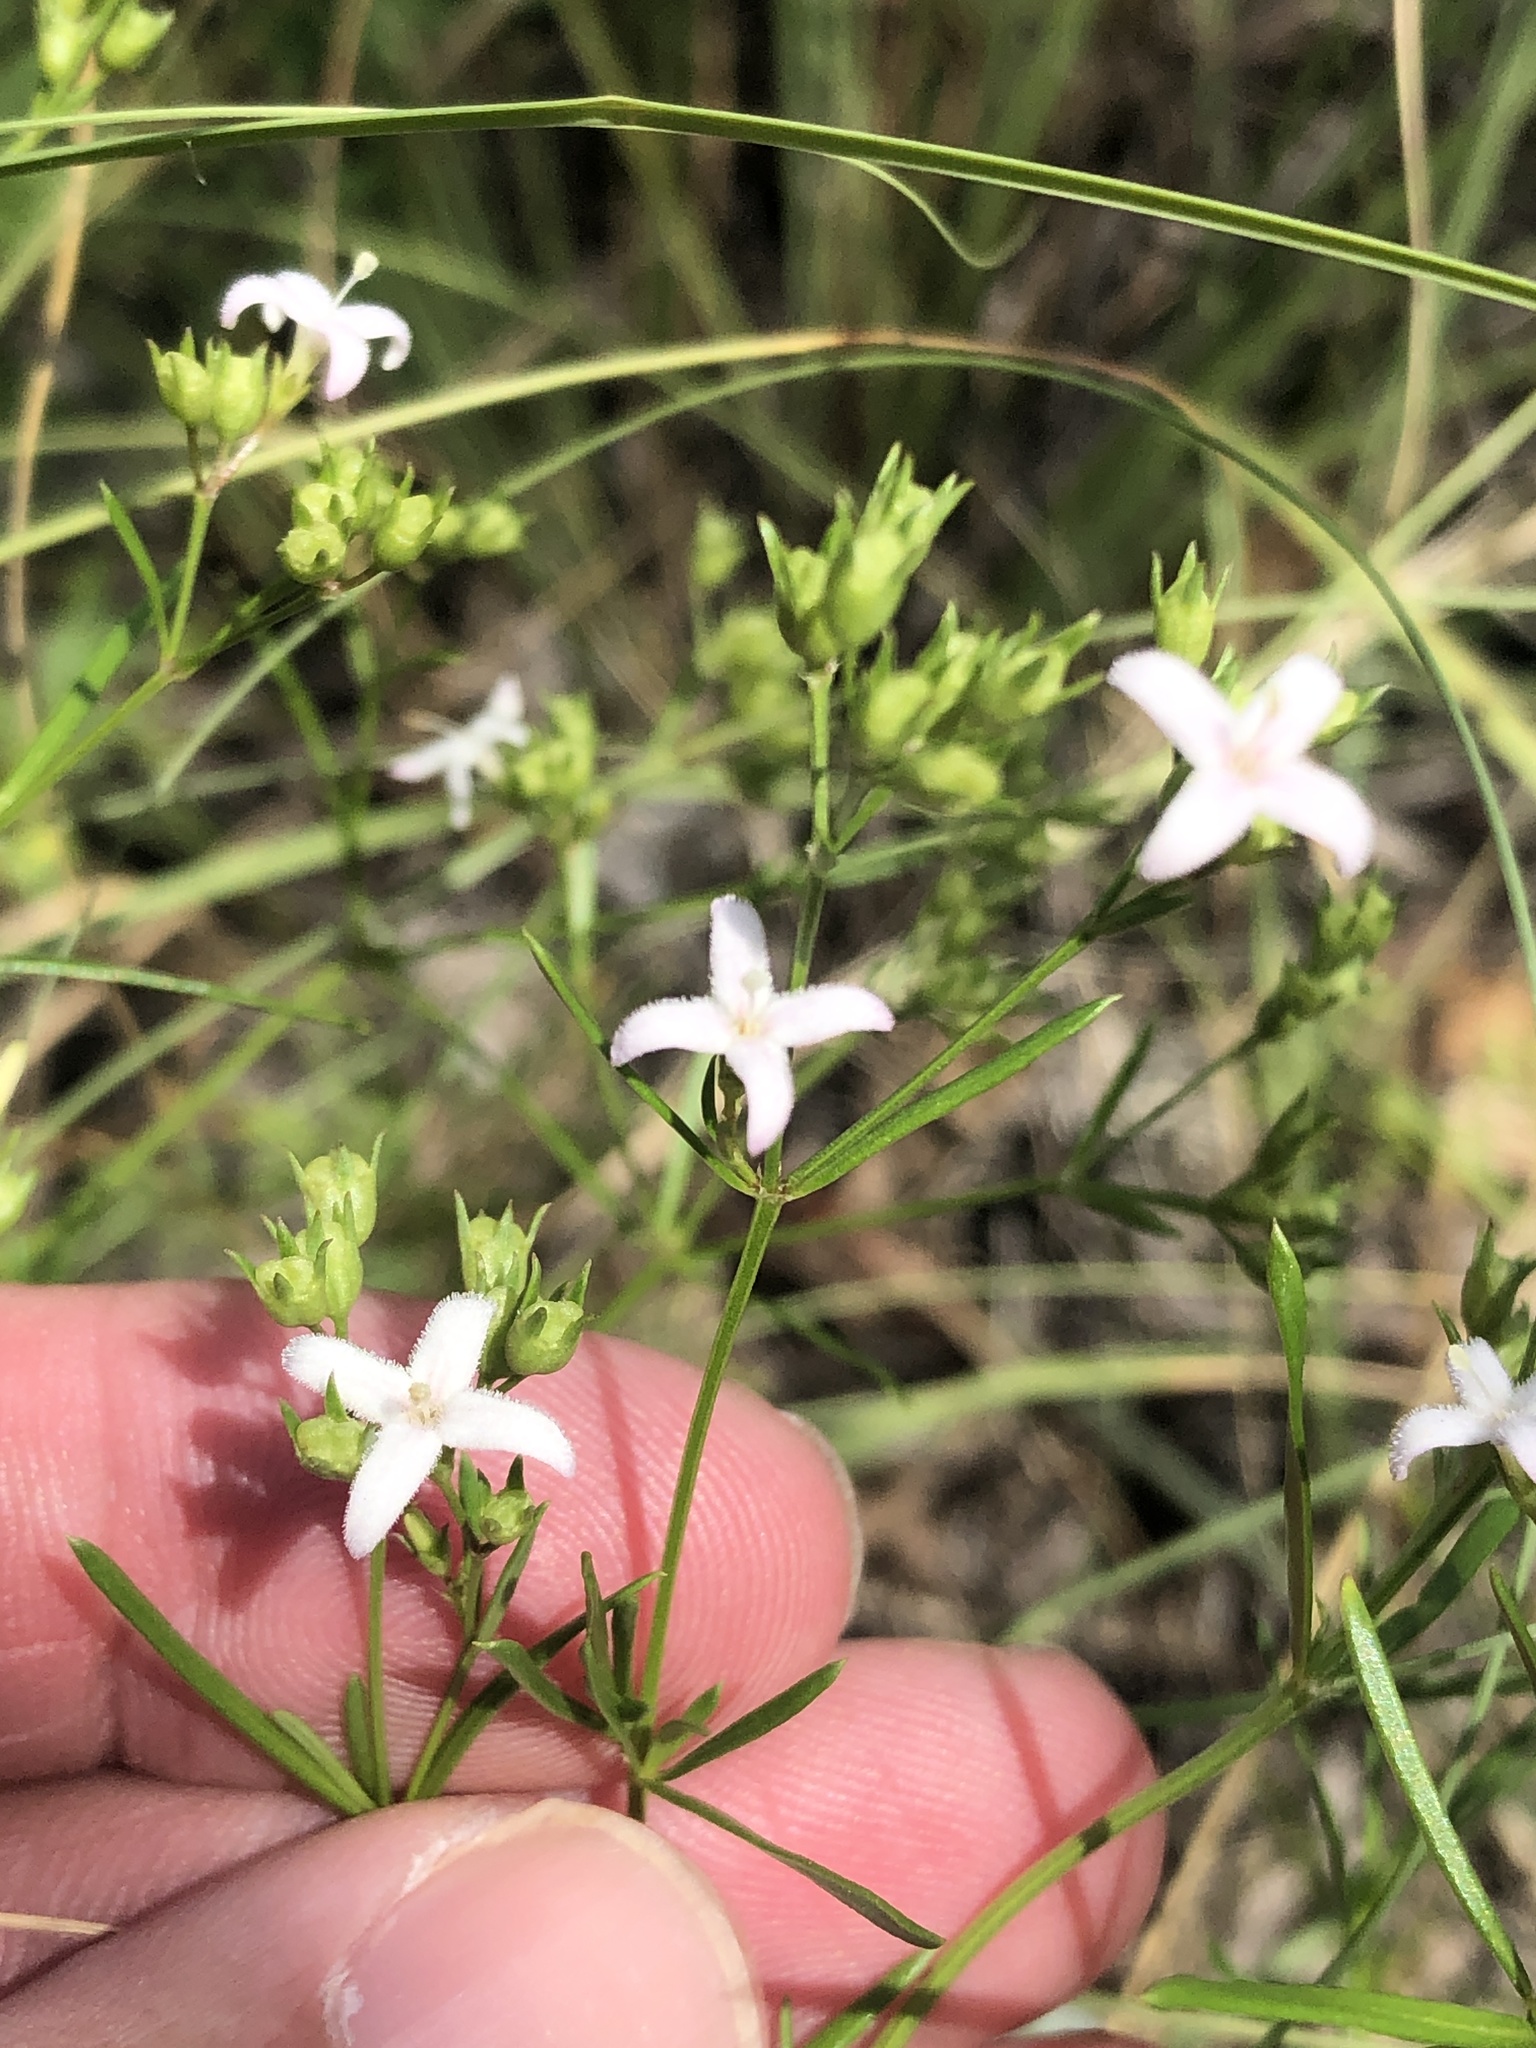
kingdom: Plantae
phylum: Tracheophyta
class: Magnoliopsida
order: Gentianales
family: Rubiaceae
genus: Stenaria
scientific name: Stenaria nigricans
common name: Diamondflowers
